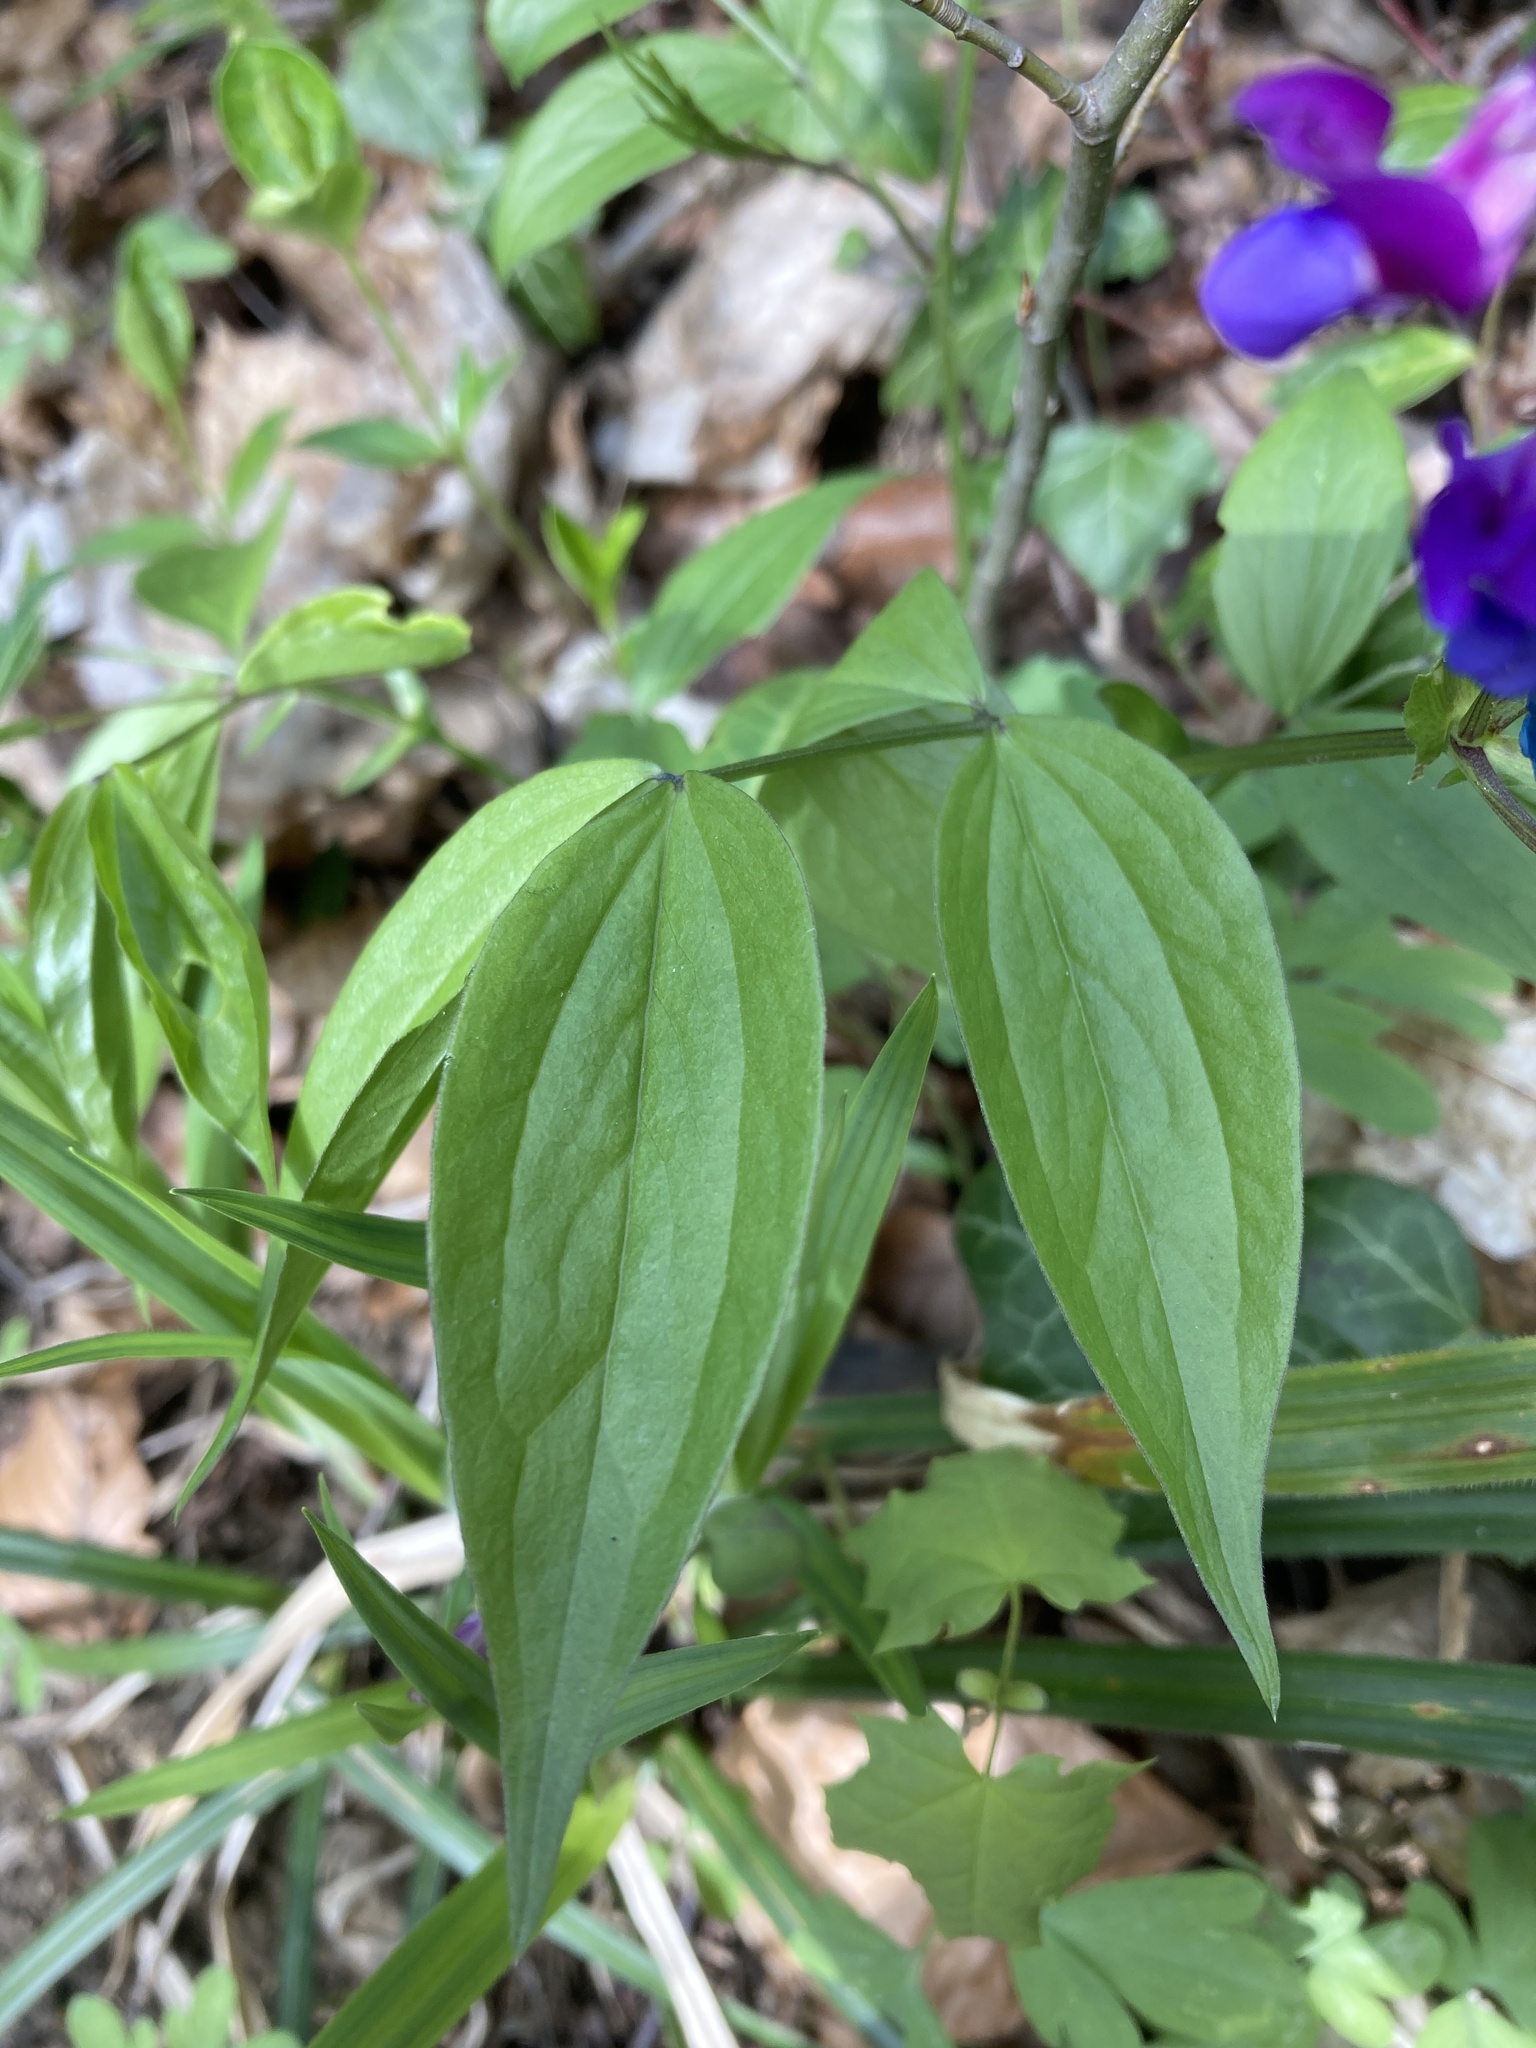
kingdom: Plantae
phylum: Tracheophyta
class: Magnoliopsida
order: Fabales
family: Fabaceae
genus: Lathyrus
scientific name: Lathyrus vernus
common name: Spring pea
